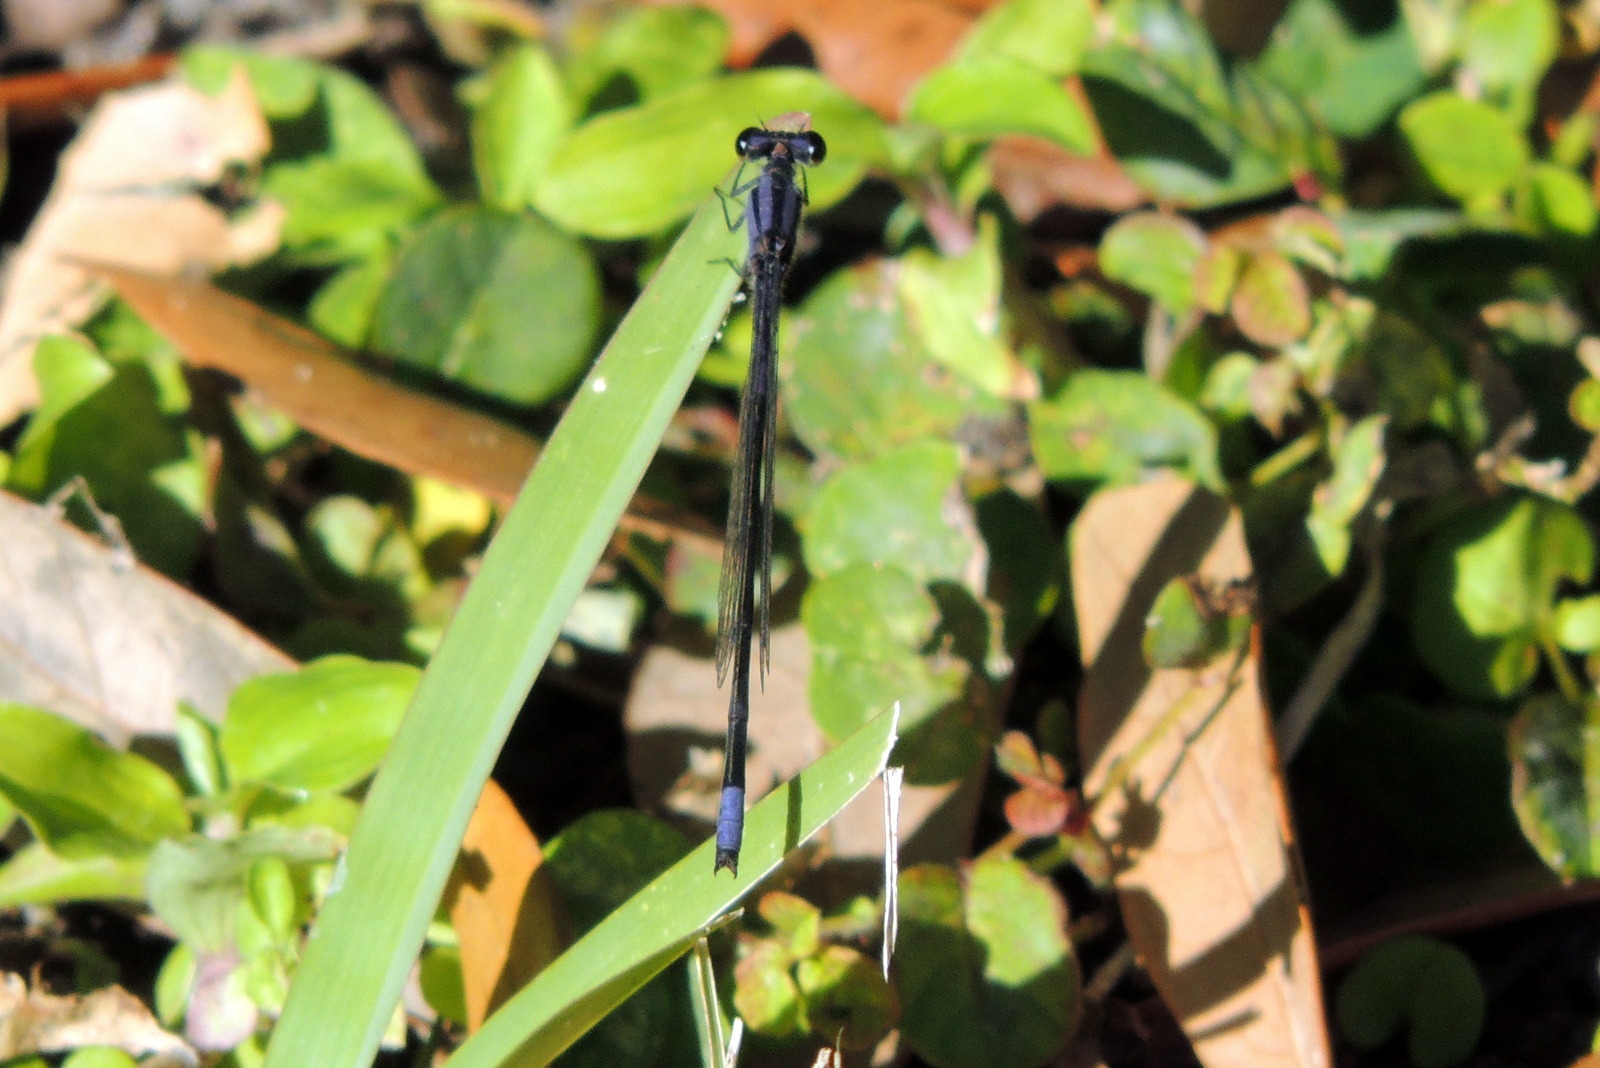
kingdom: Animalia
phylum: Arthropoda
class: Insecta
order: Odonata
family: Coenagrionidae
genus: Enallagma
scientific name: Enallagma cardenium
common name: Purple bluet
